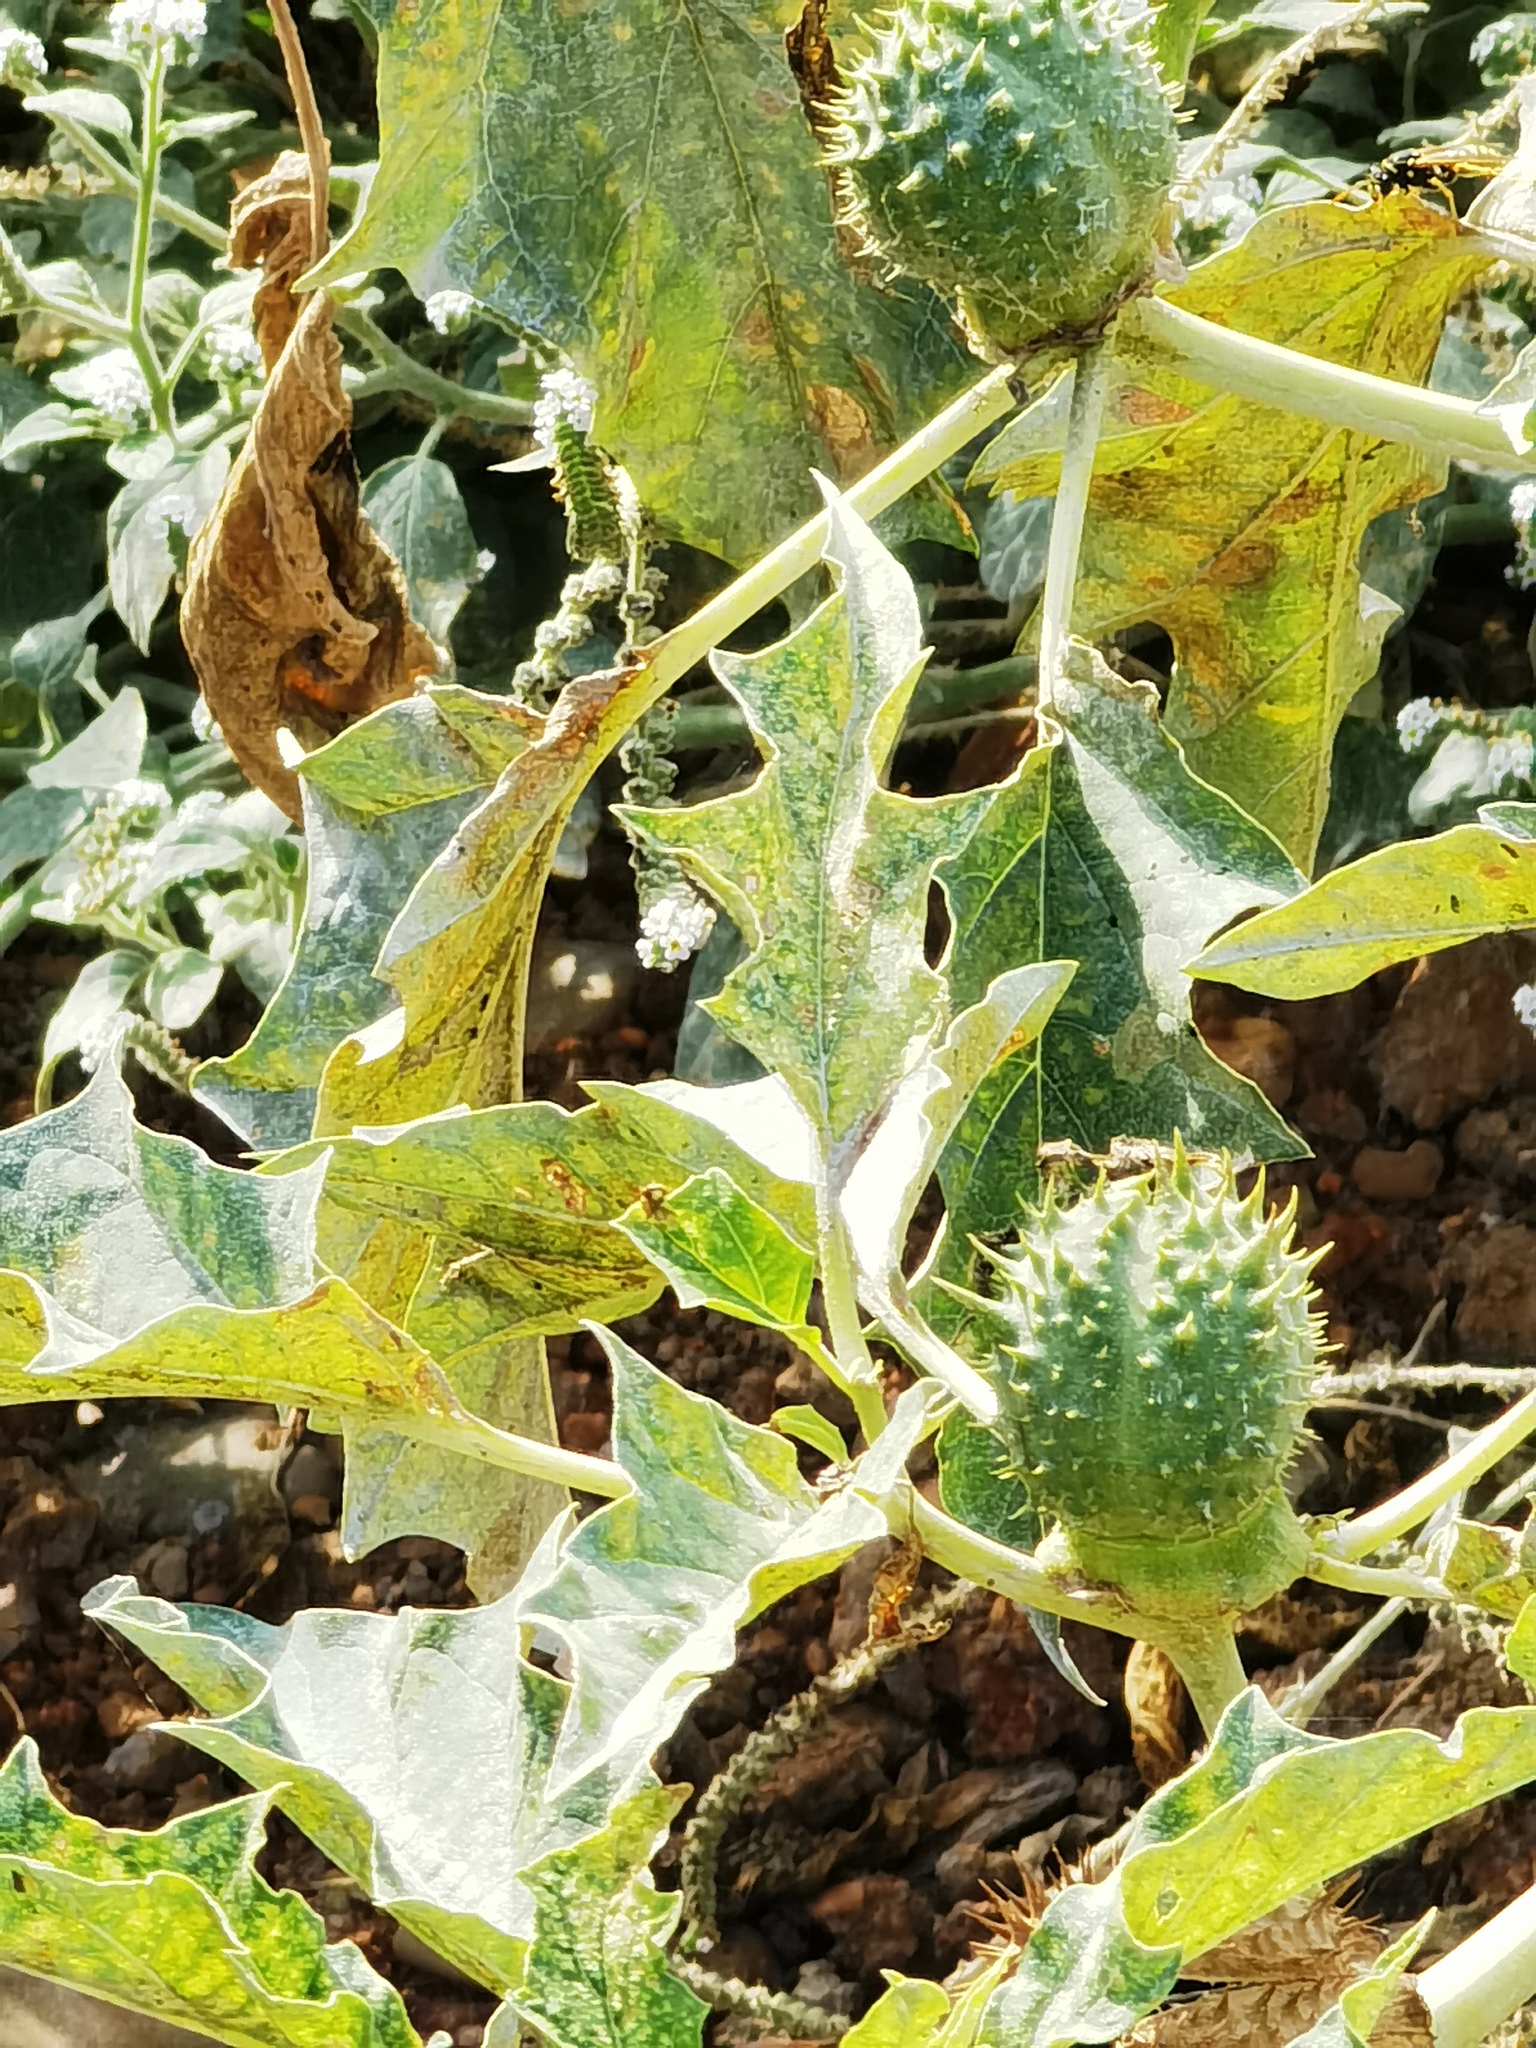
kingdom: Plantae
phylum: Tracheophyta
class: Magnoliopsida
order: Solanales
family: Solanaceae
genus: Datura
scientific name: Datura stramonium
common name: Thorn-apple
